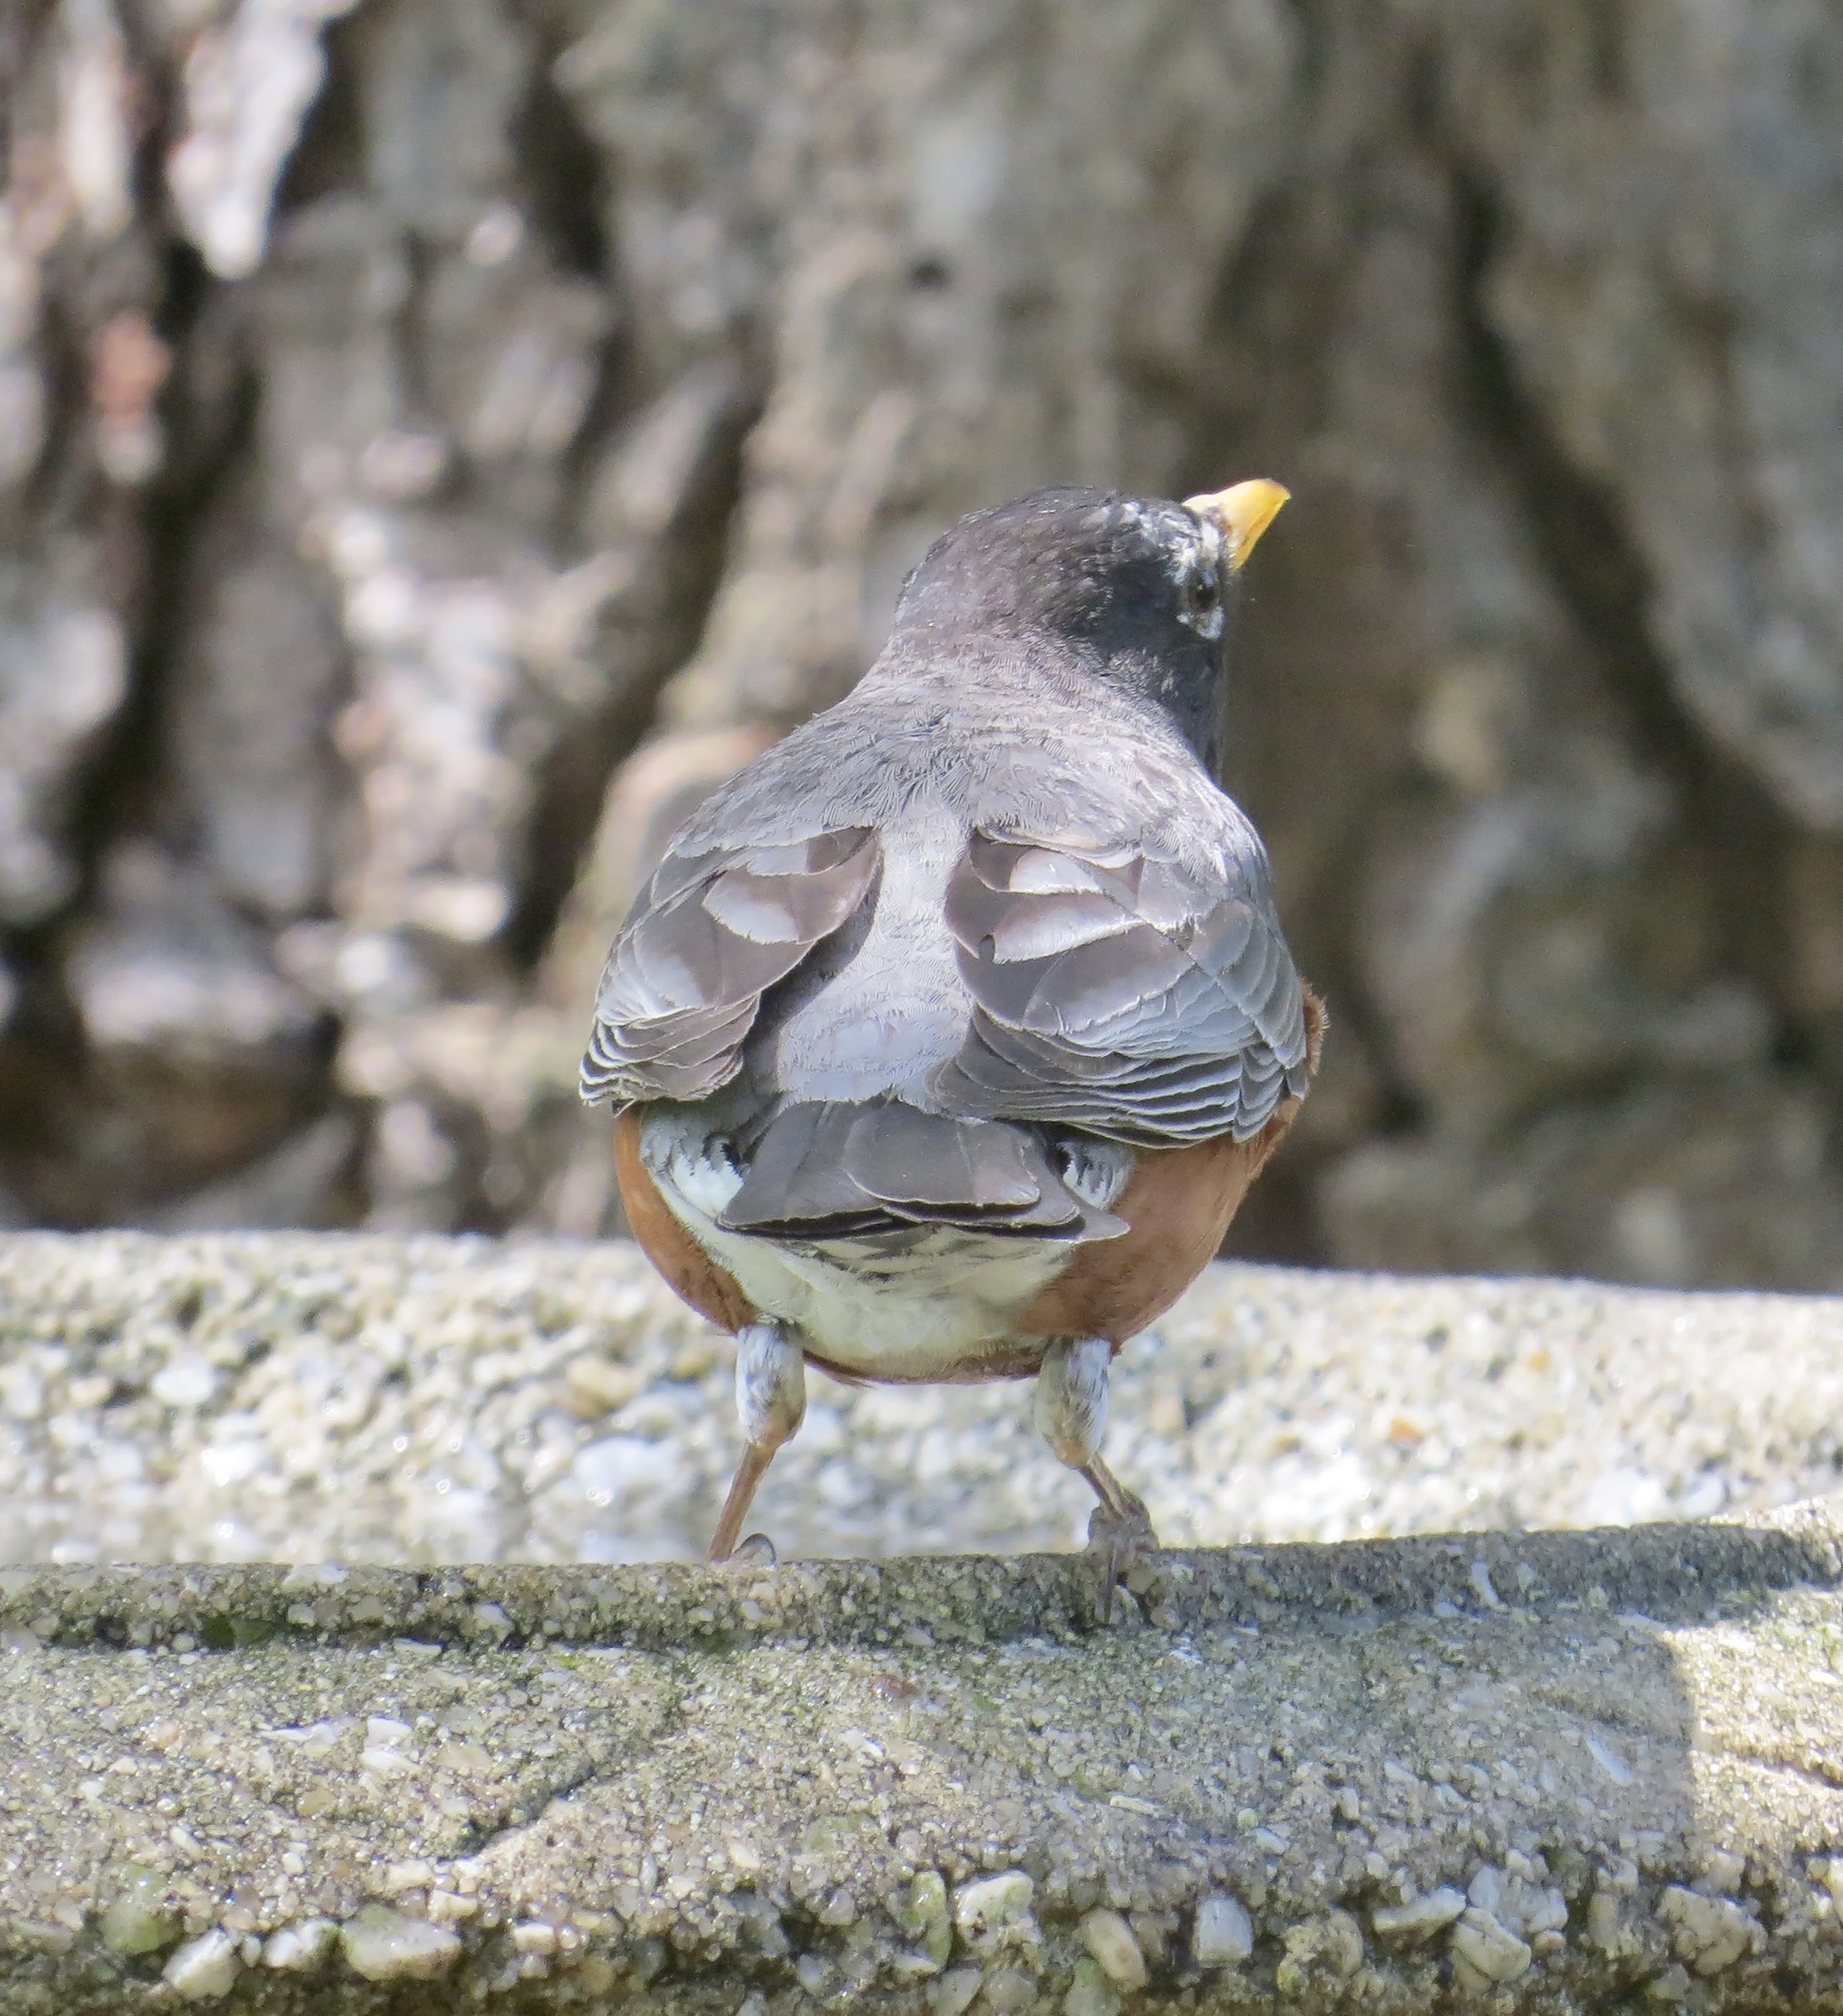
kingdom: Animalia
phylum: Chordata
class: Aves
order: Passeriformes
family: Turdidae
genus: Turdus
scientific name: Turdus migratorius
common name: American robin
